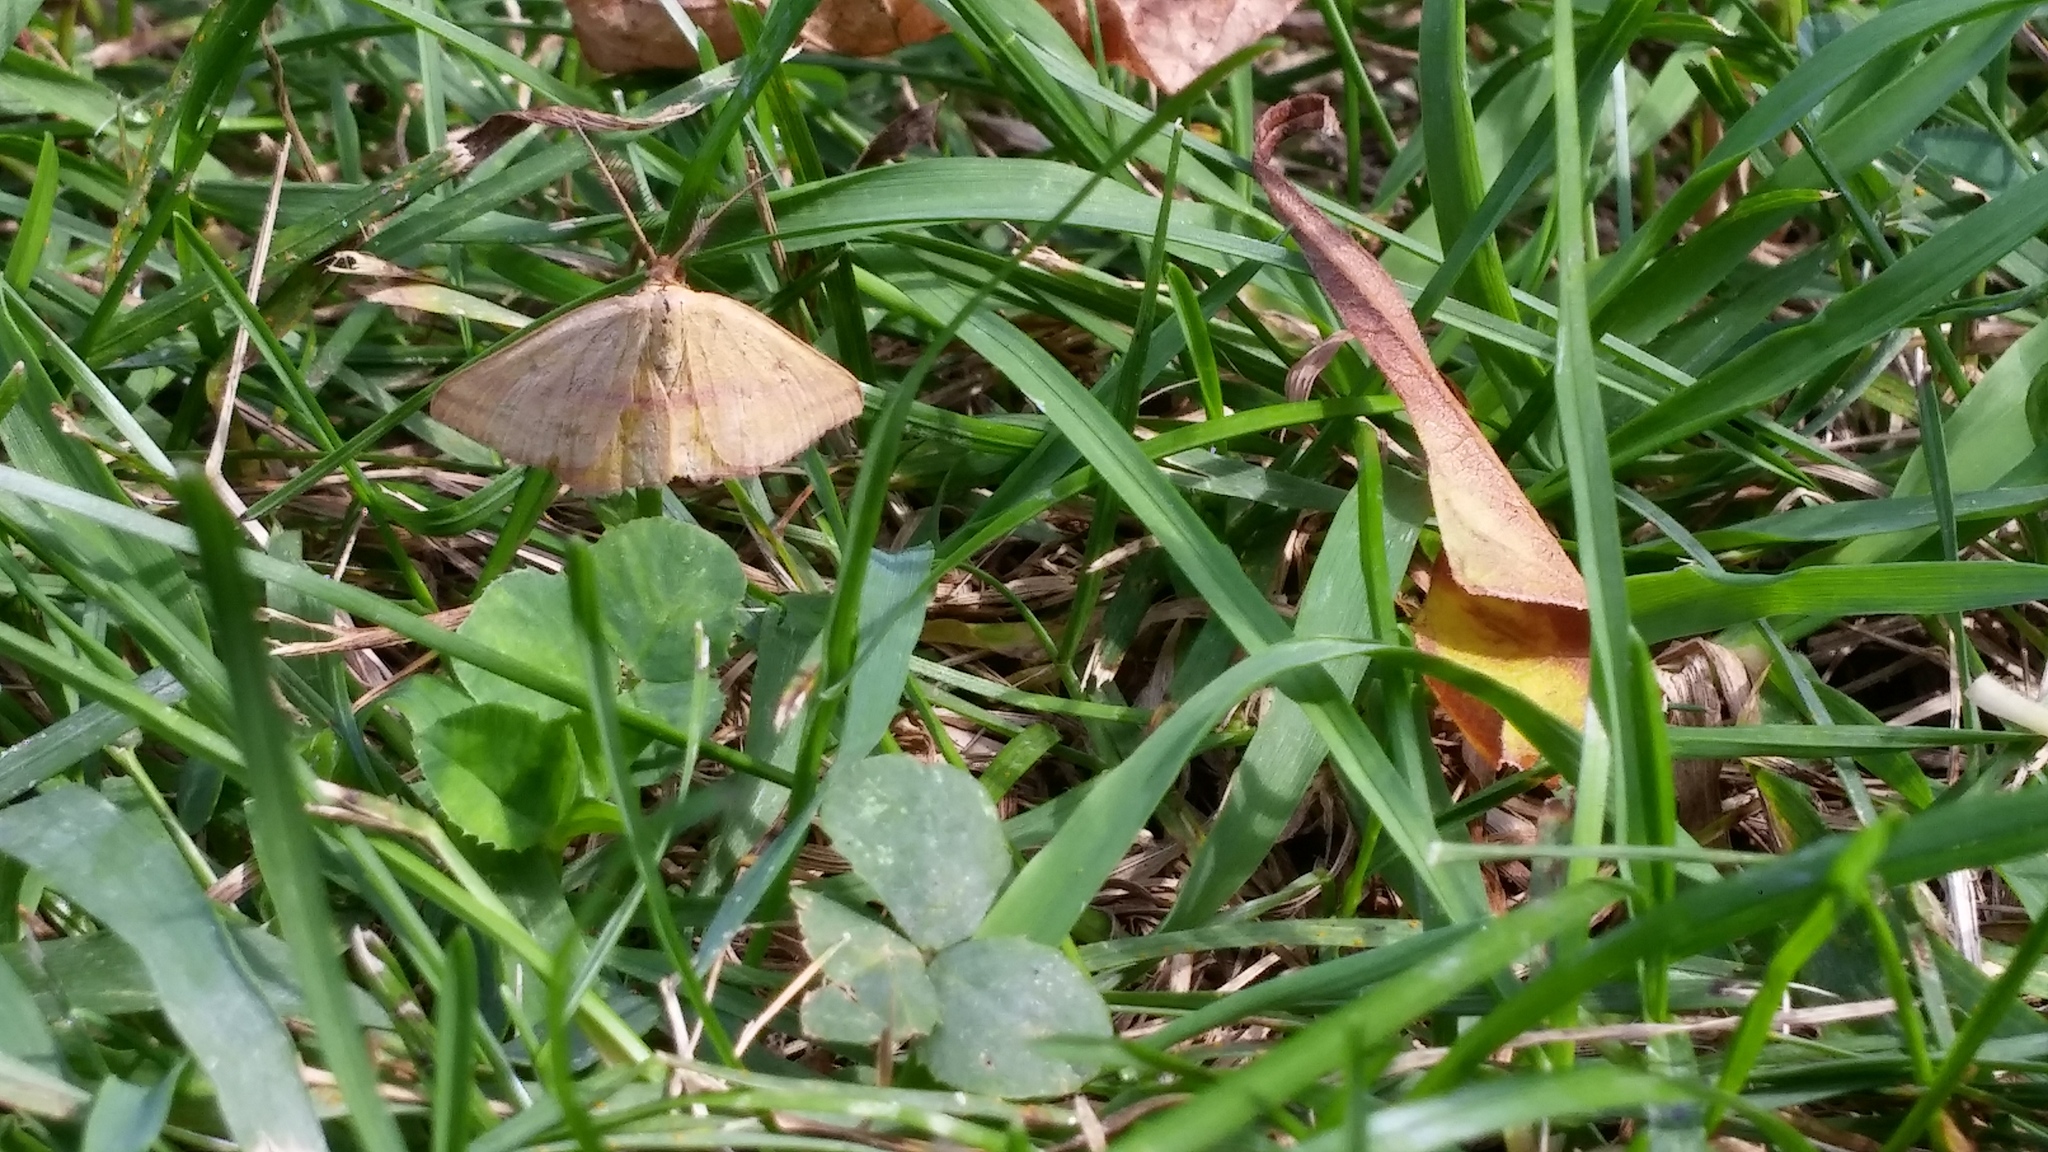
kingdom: Animalia
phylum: Arthropoda
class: Insecta
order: Lepidoptera
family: Geometridae
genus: Haematopis
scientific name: Haematopis grataria
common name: Chickweed geometer
